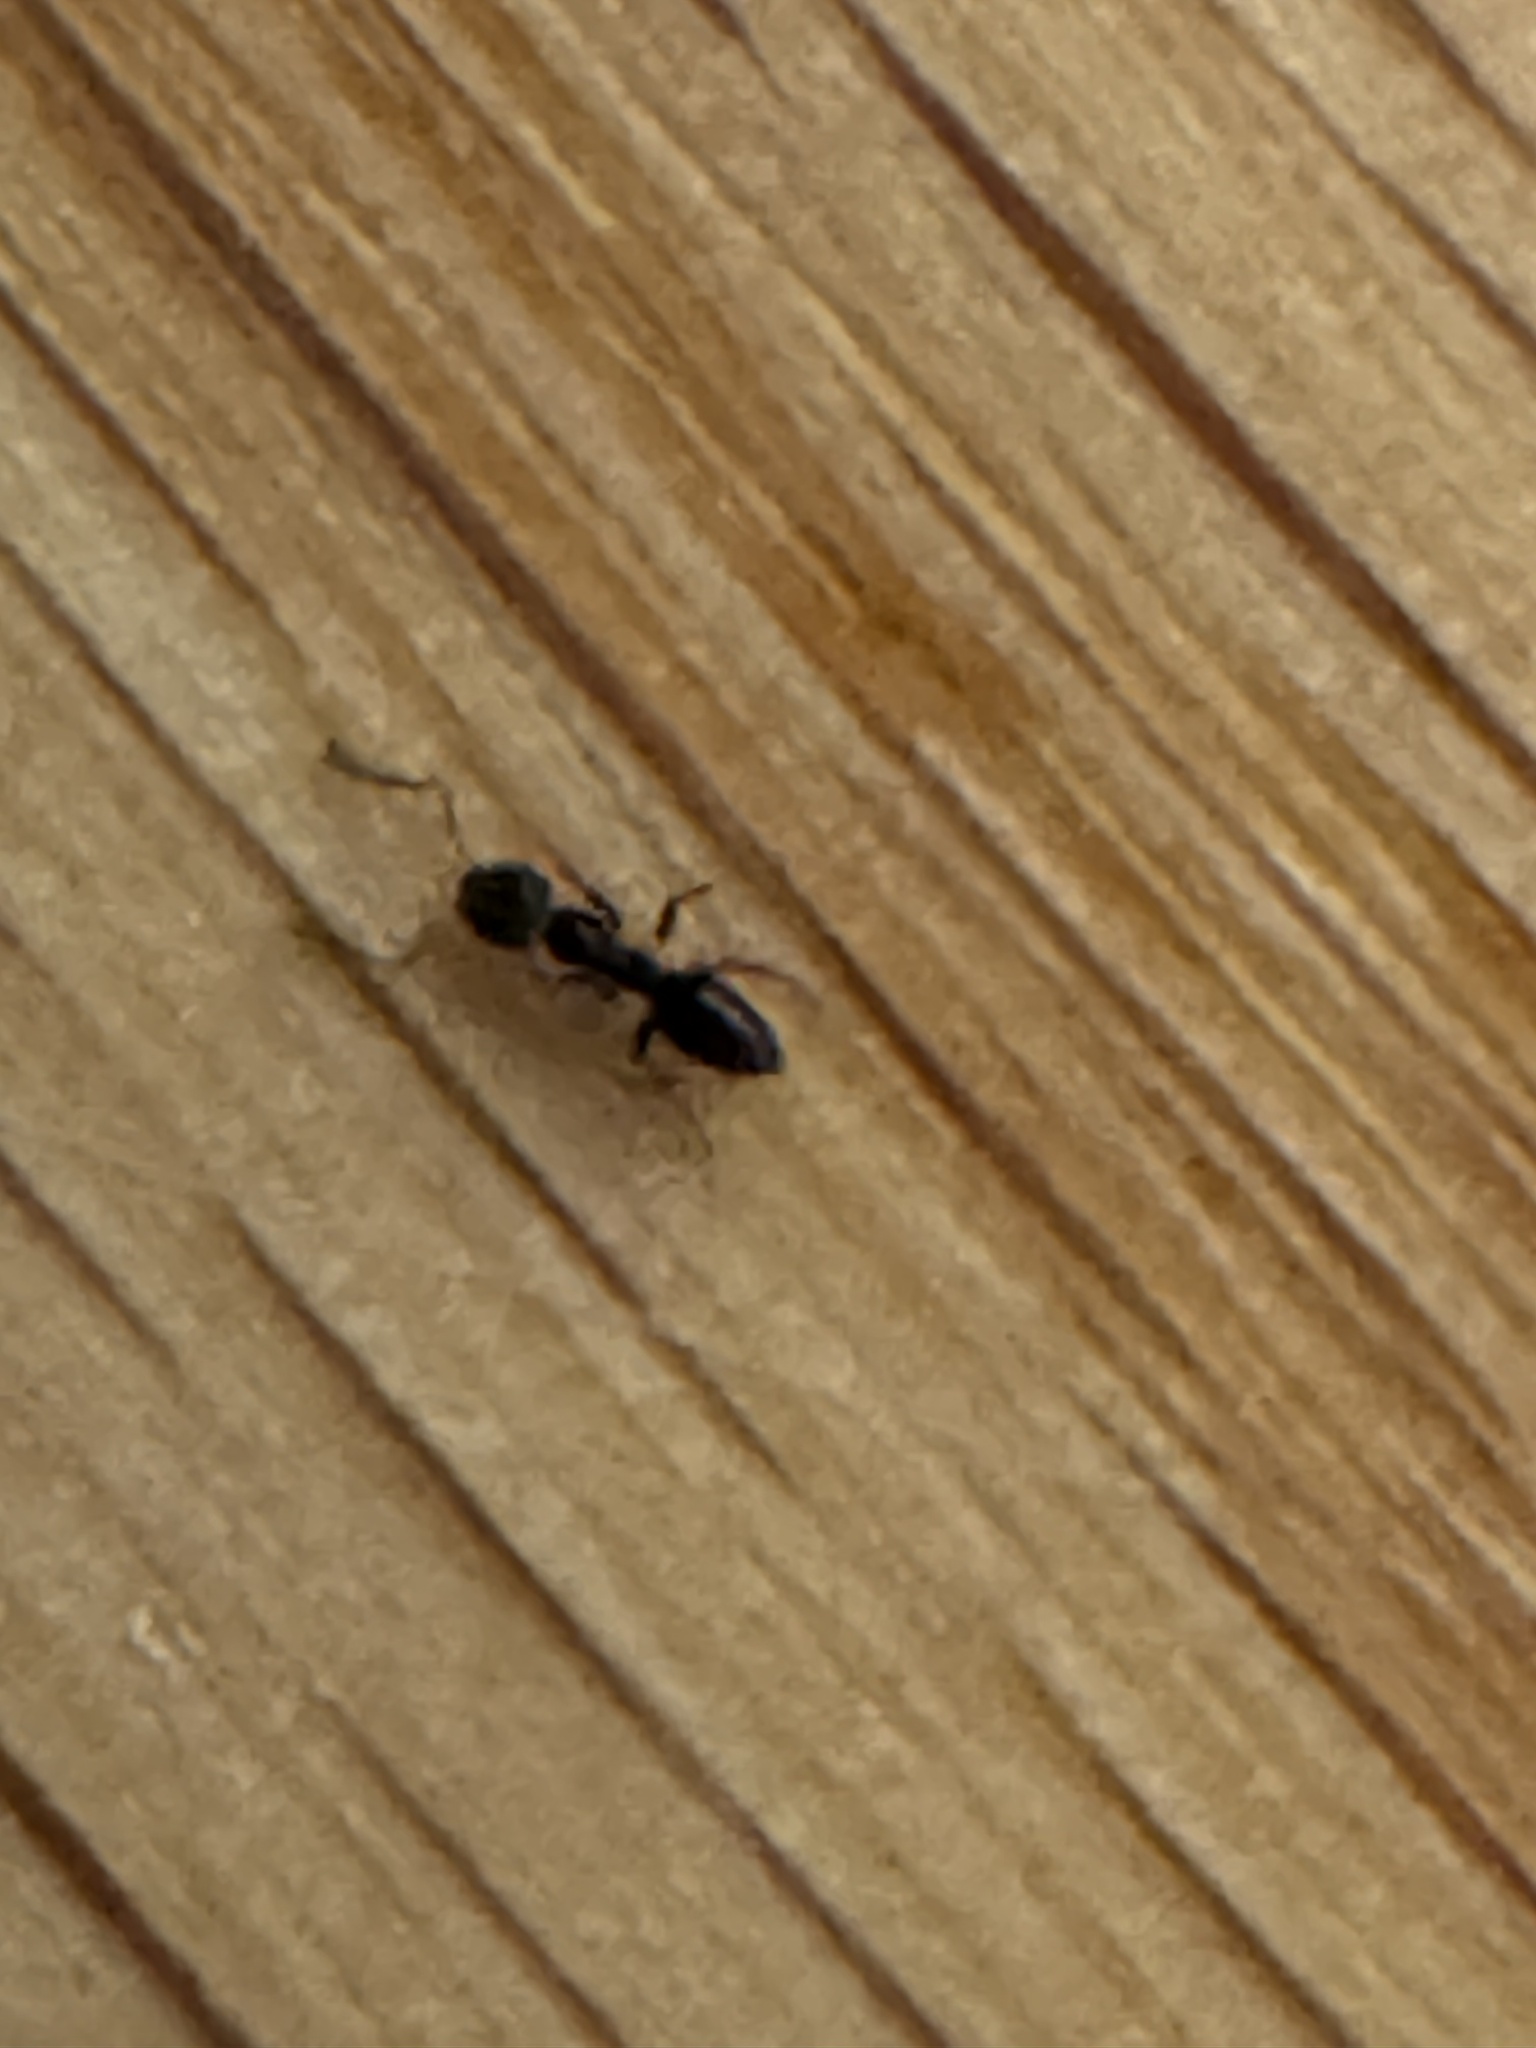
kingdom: Animalia
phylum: Arthropoda
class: Insecta
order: Hymenoptera
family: Formicidae
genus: Tapinoma
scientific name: Tapinoma sessile
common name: Odorous house ant
